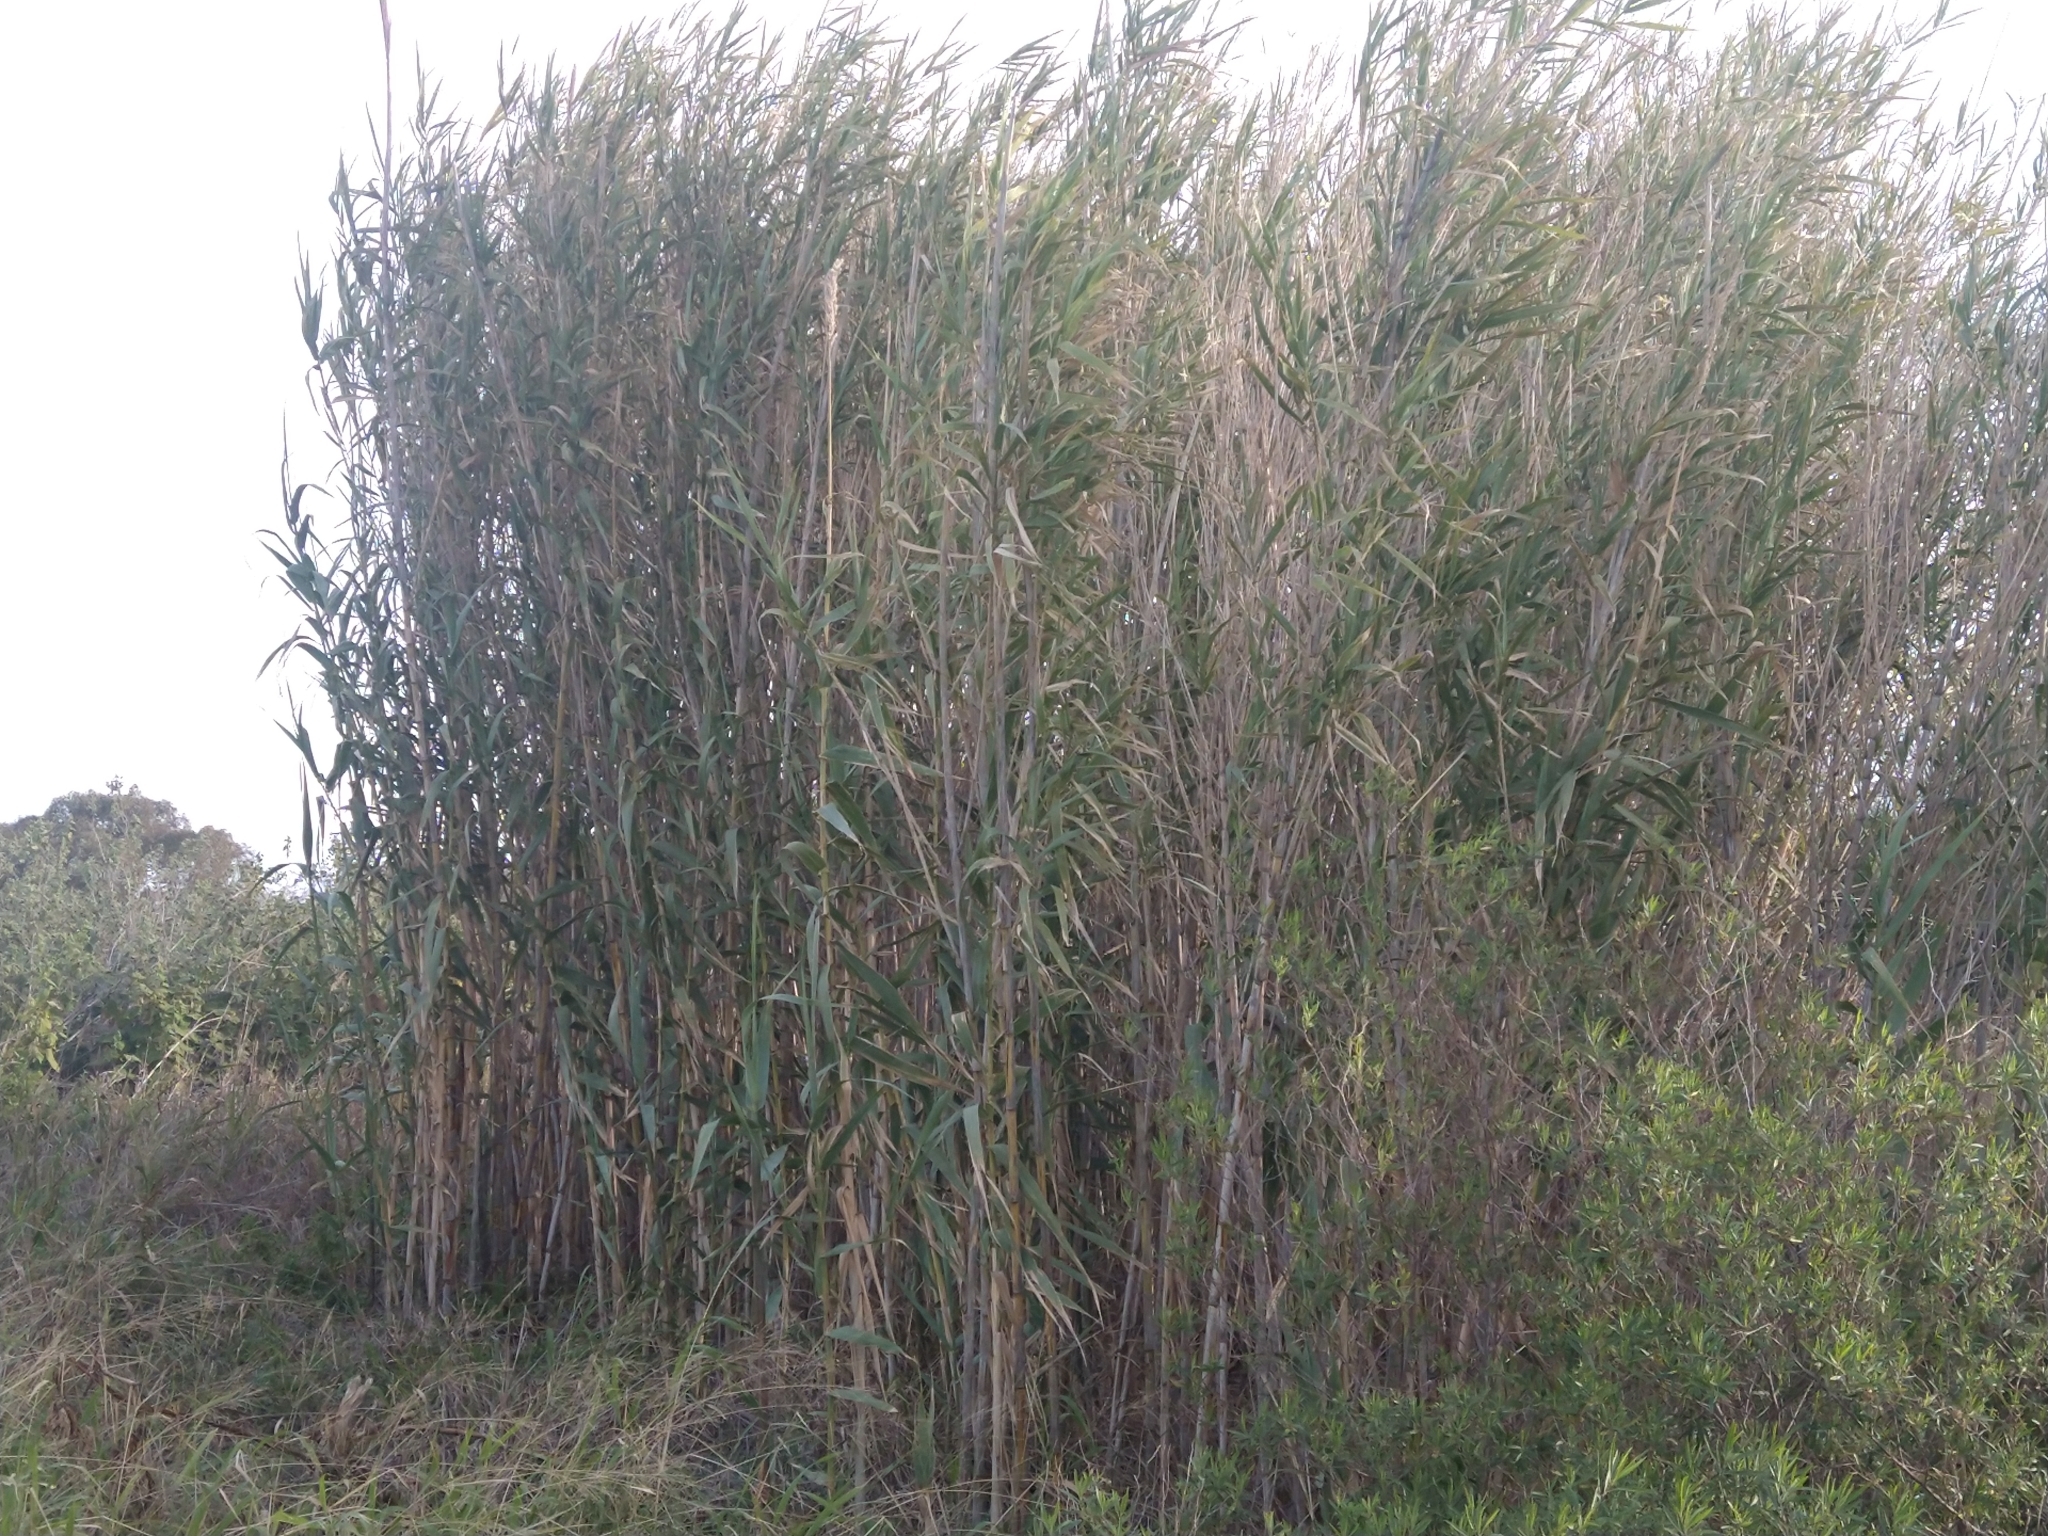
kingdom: Plantae
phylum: Tracheophyta
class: Liliopsida
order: Poales
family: Poaceae
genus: Arundo
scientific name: Arundo donax
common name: Giant reed
